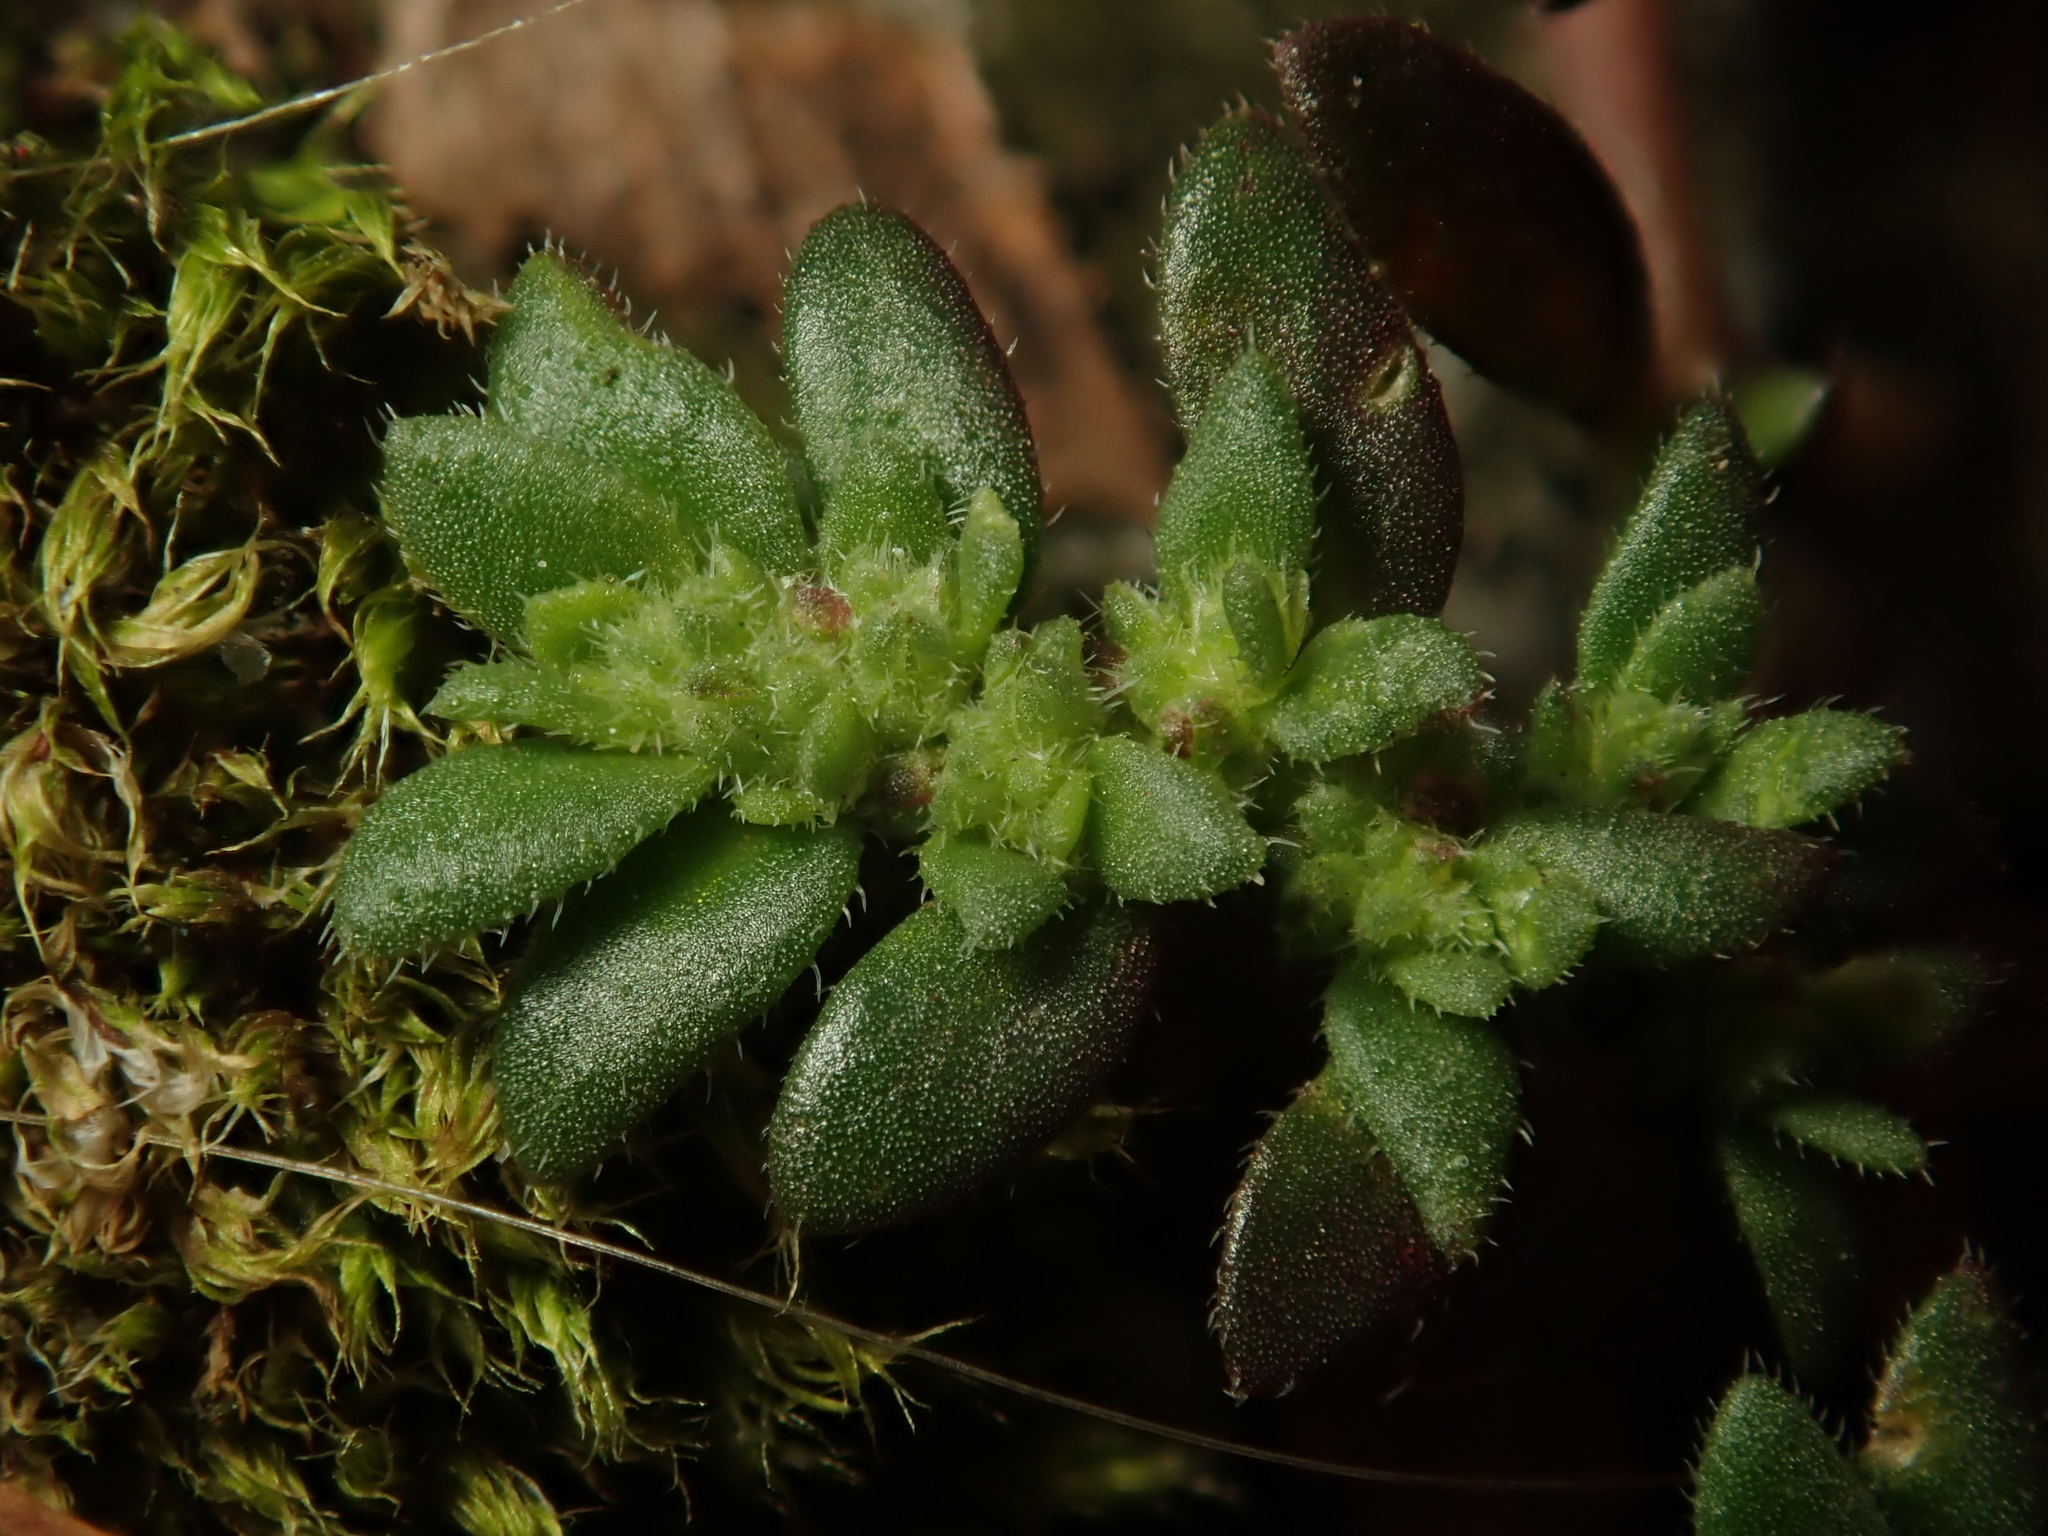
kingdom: Plantae
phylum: Tracheophyta
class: Magnoliopsida
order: Caryophyllales
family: Caryophyllaceae
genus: Herniaria
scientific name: Herniaria hirsuta
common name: Hairy rupturewort
